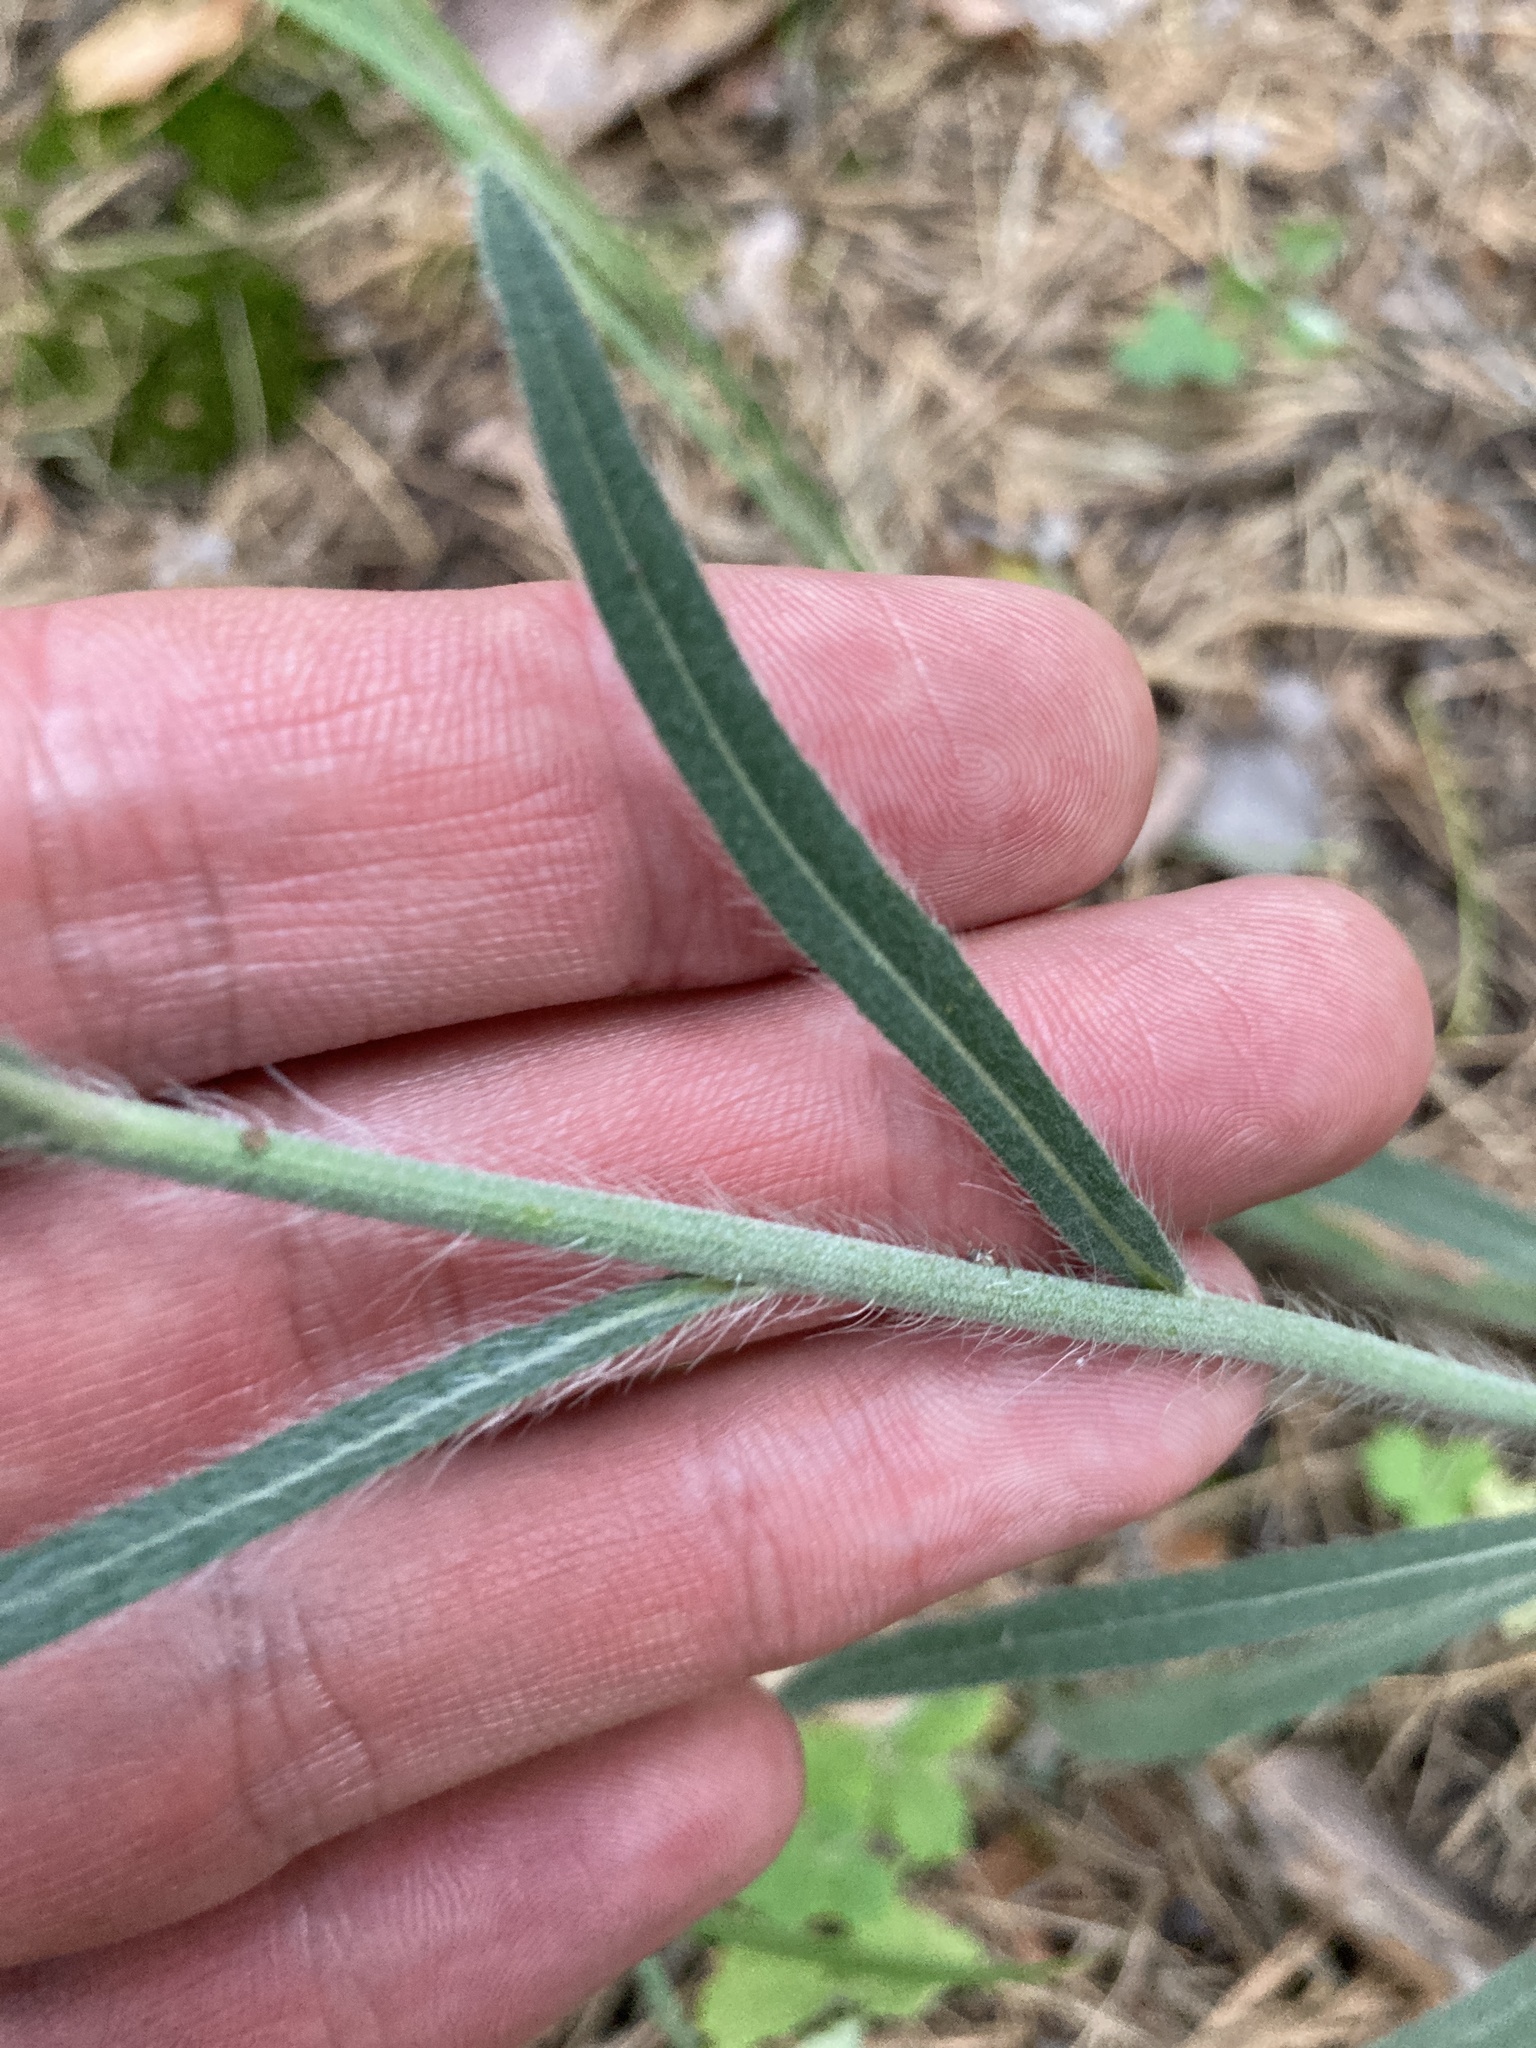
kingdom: Plantae
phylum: Tracheophyta
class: Magnoliopsida
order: Asterales
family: Asteraceae
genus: Pilosella
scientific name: Pilosella echioides
